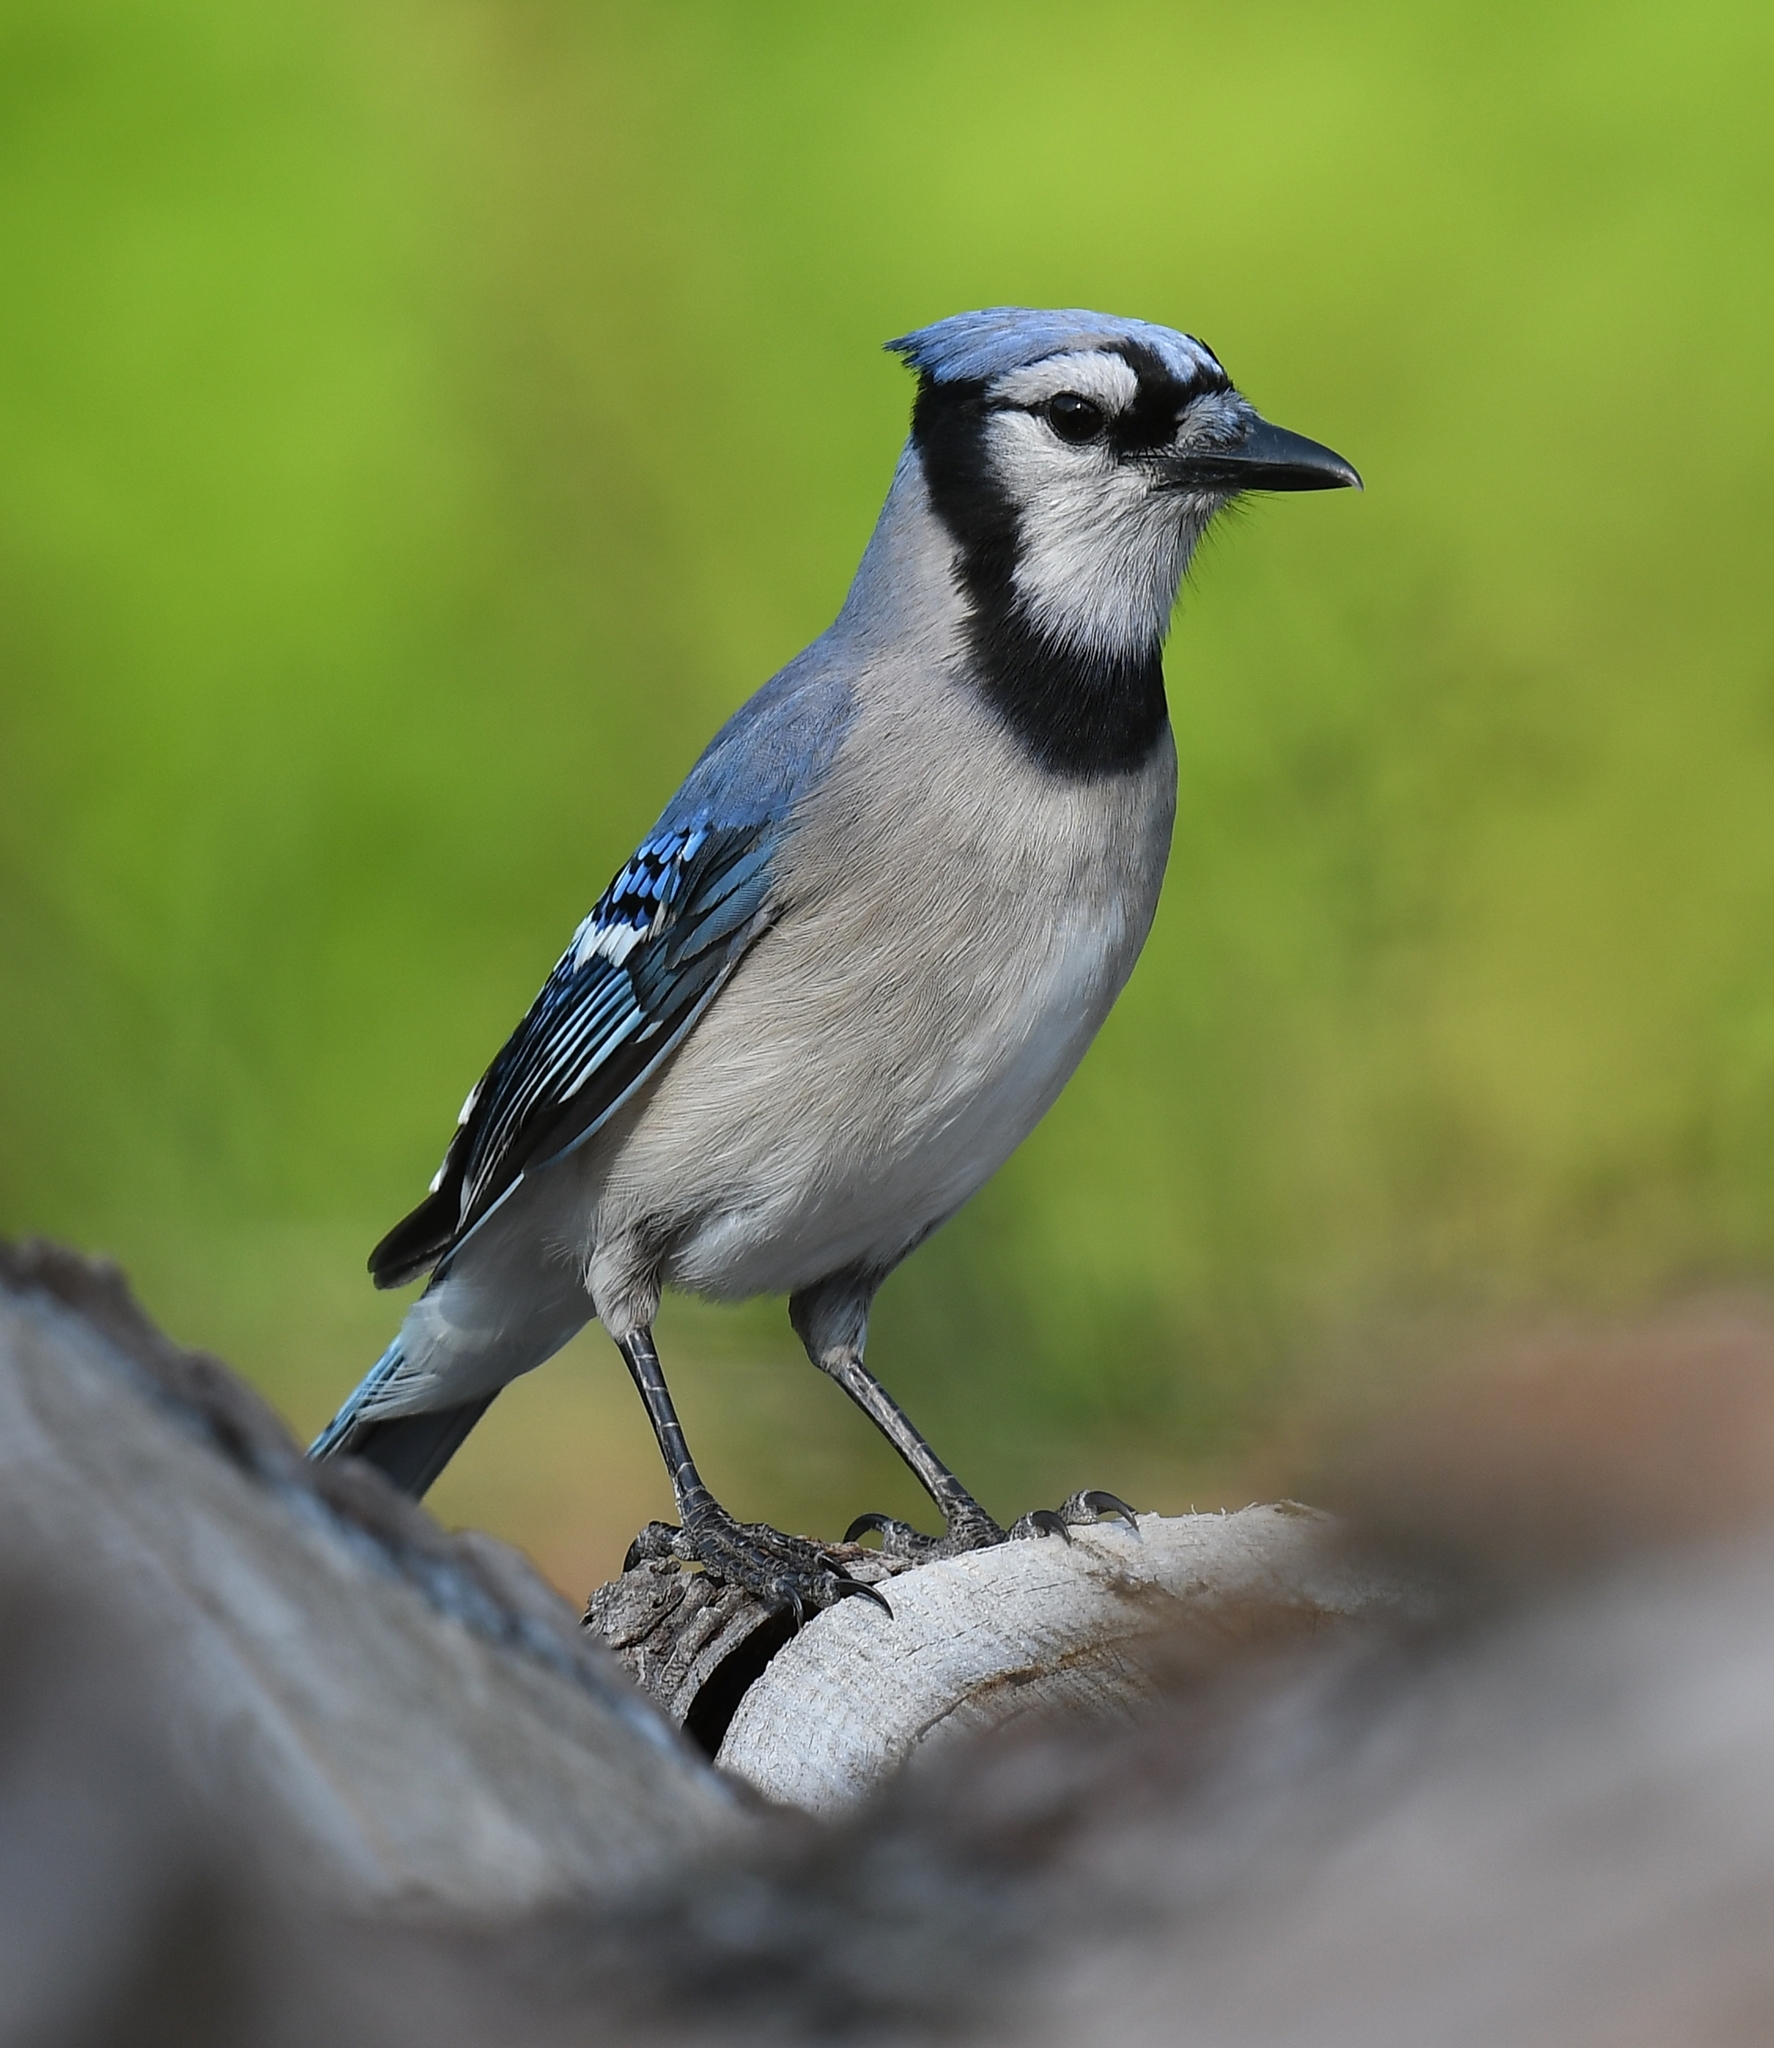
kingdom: Animalia
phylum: Chordata
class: Aves
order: Passeriformes
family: Corvidae
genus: Cyanocitta
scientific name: Cyanocitta cristata
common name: Blue jay
